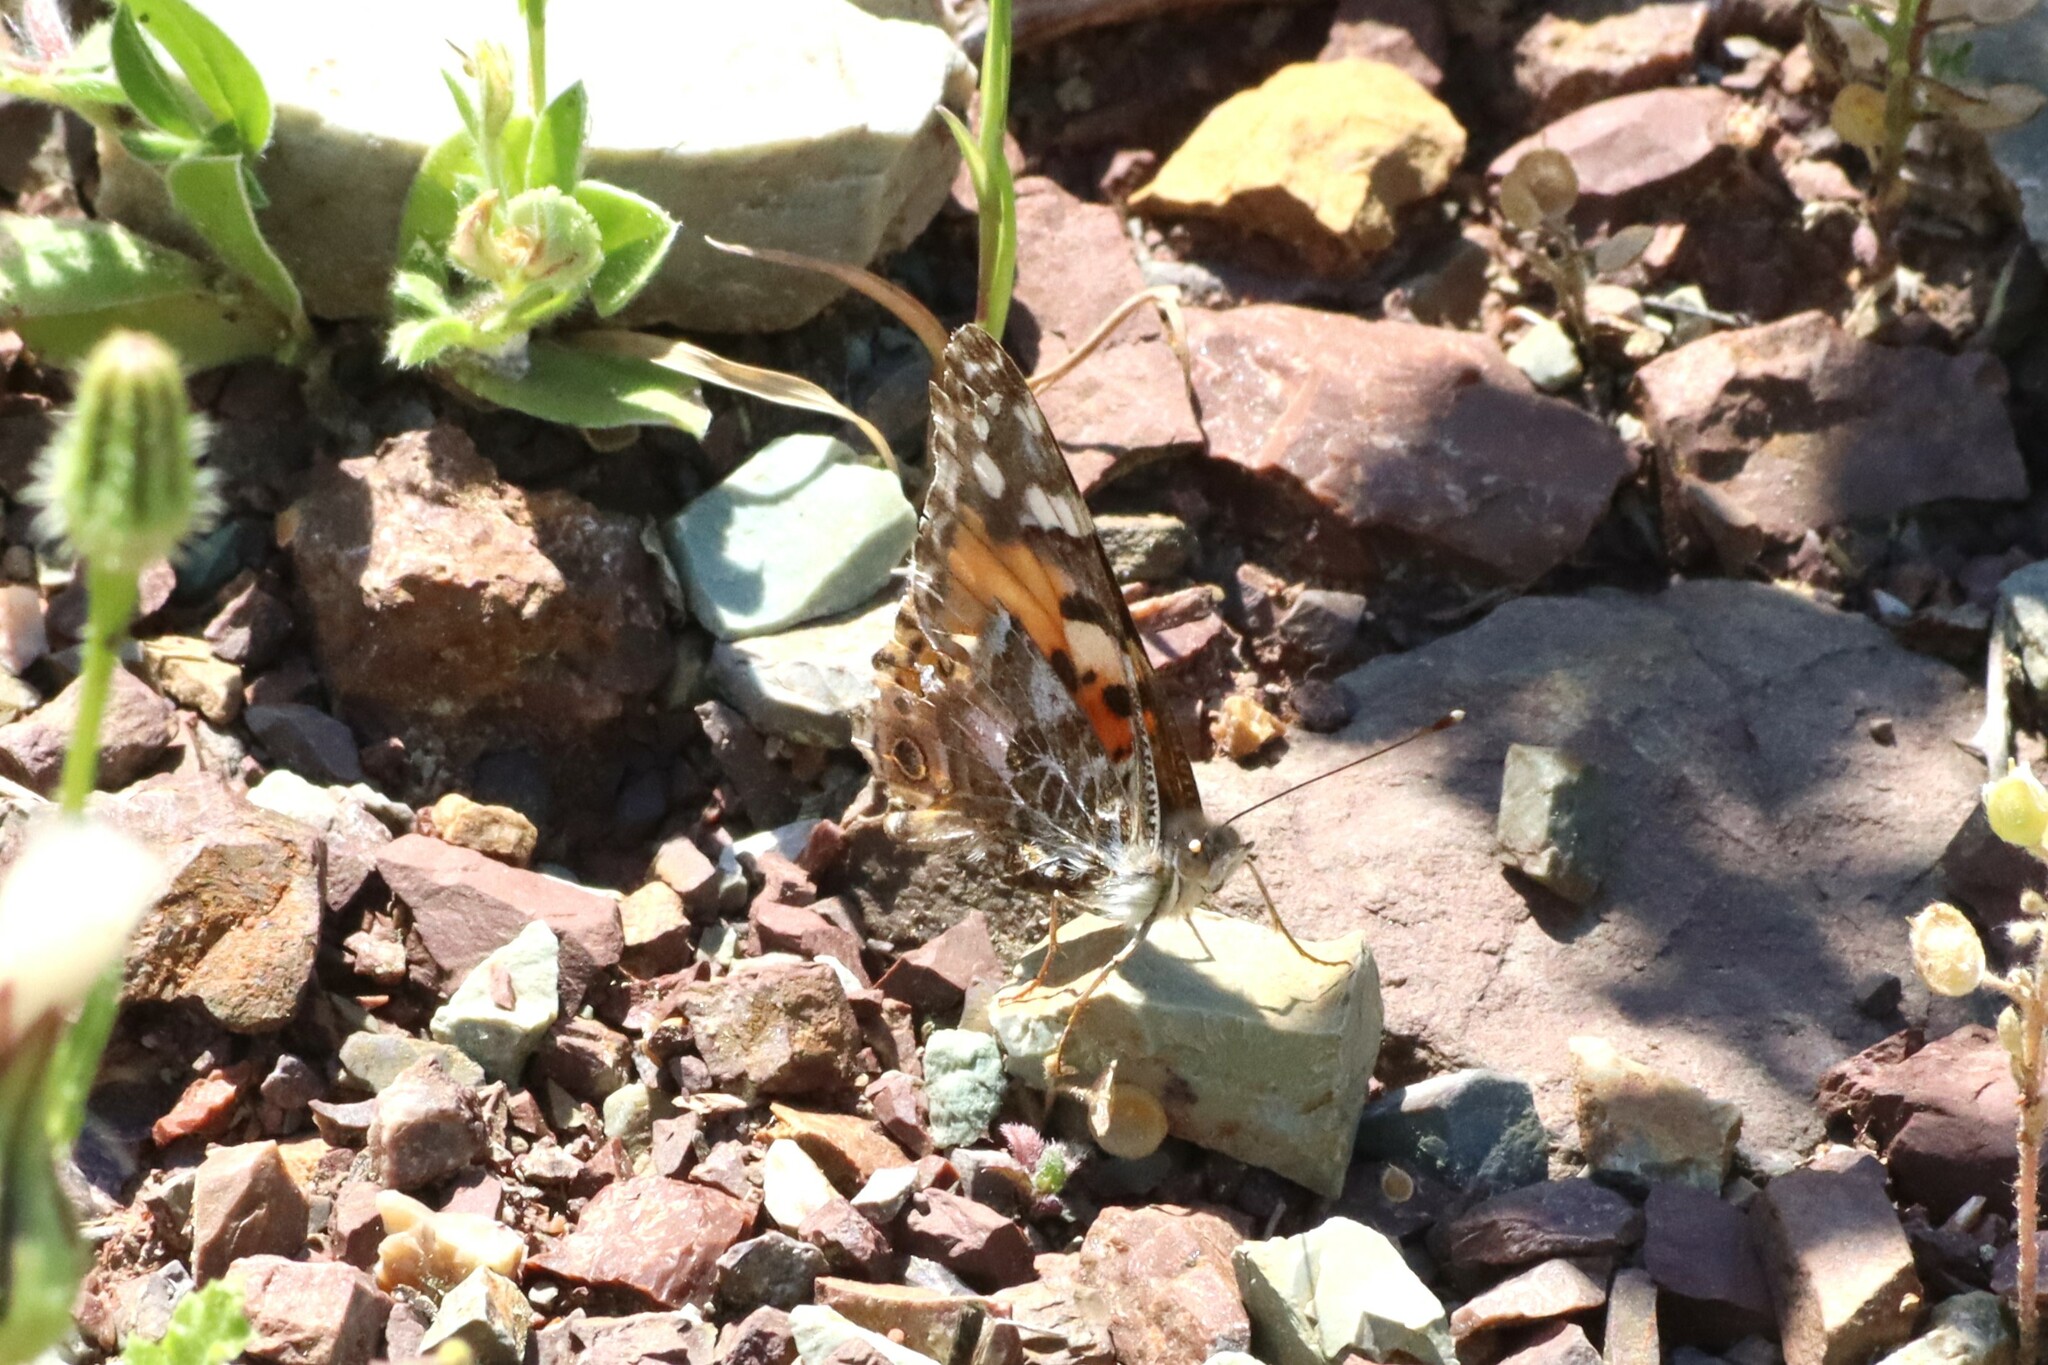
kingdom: Animalia
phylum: Arthropoda
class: Insecta
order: Lepidoptera
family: Nymphalidae
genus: Vanessa
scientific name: Vanessa cardui
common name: Painted lady
